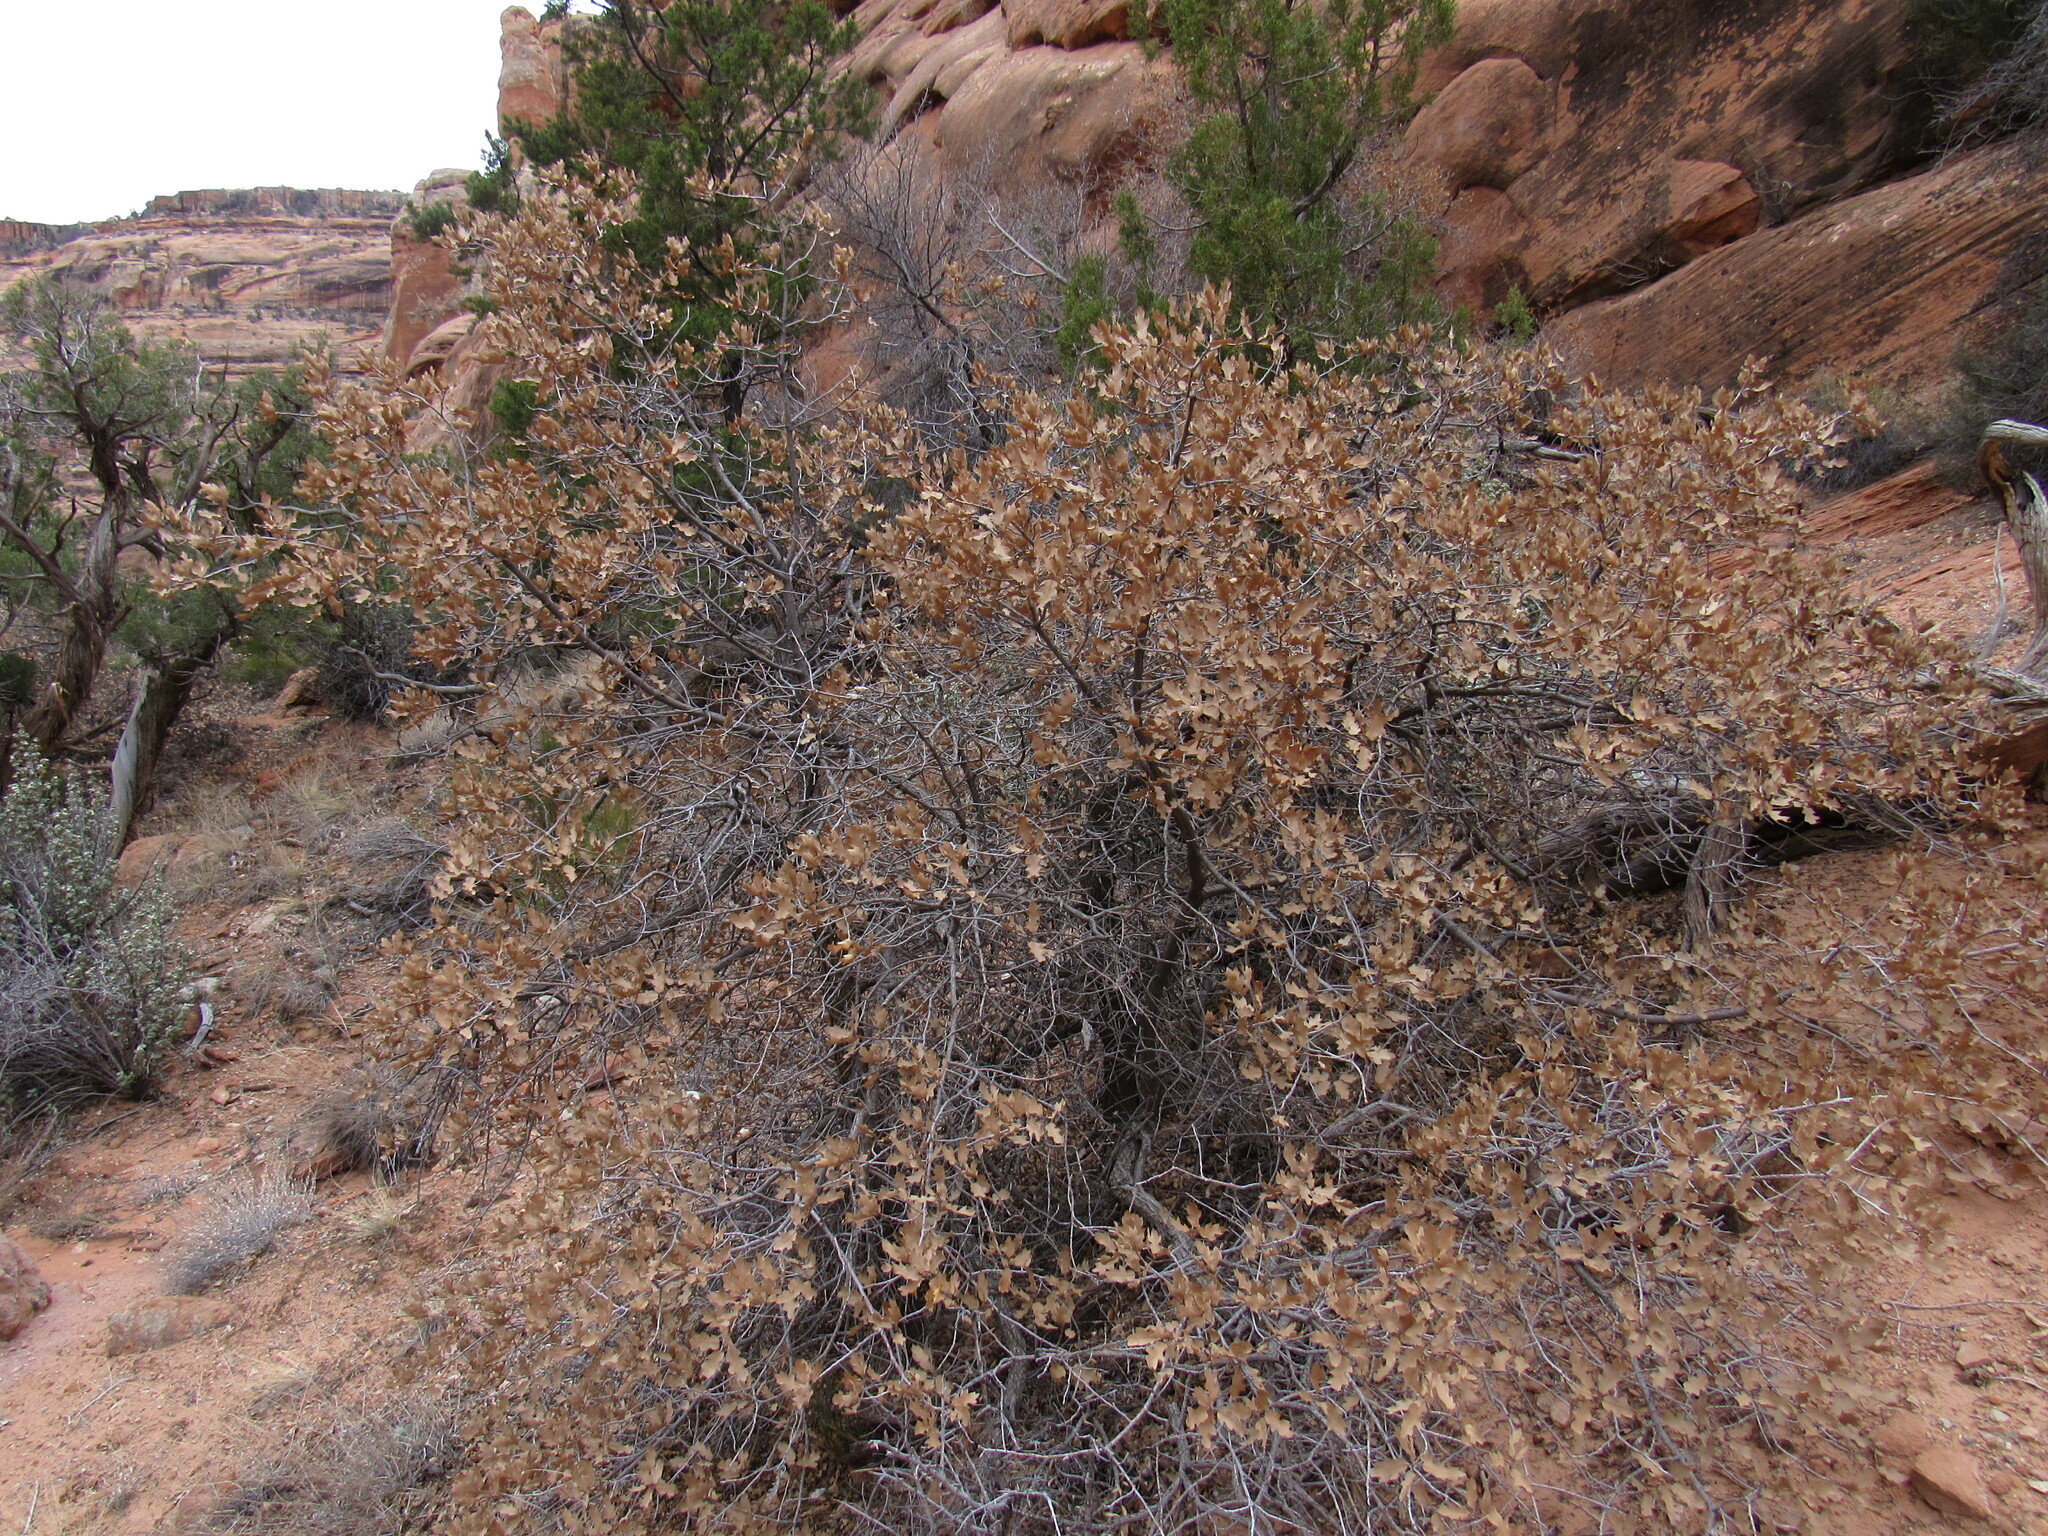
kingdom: Plantae
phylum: Tracheophyta
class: Magnoliopsida
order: Fagales
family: Fagaceae
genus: Quercus
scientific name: Quercus welshii
